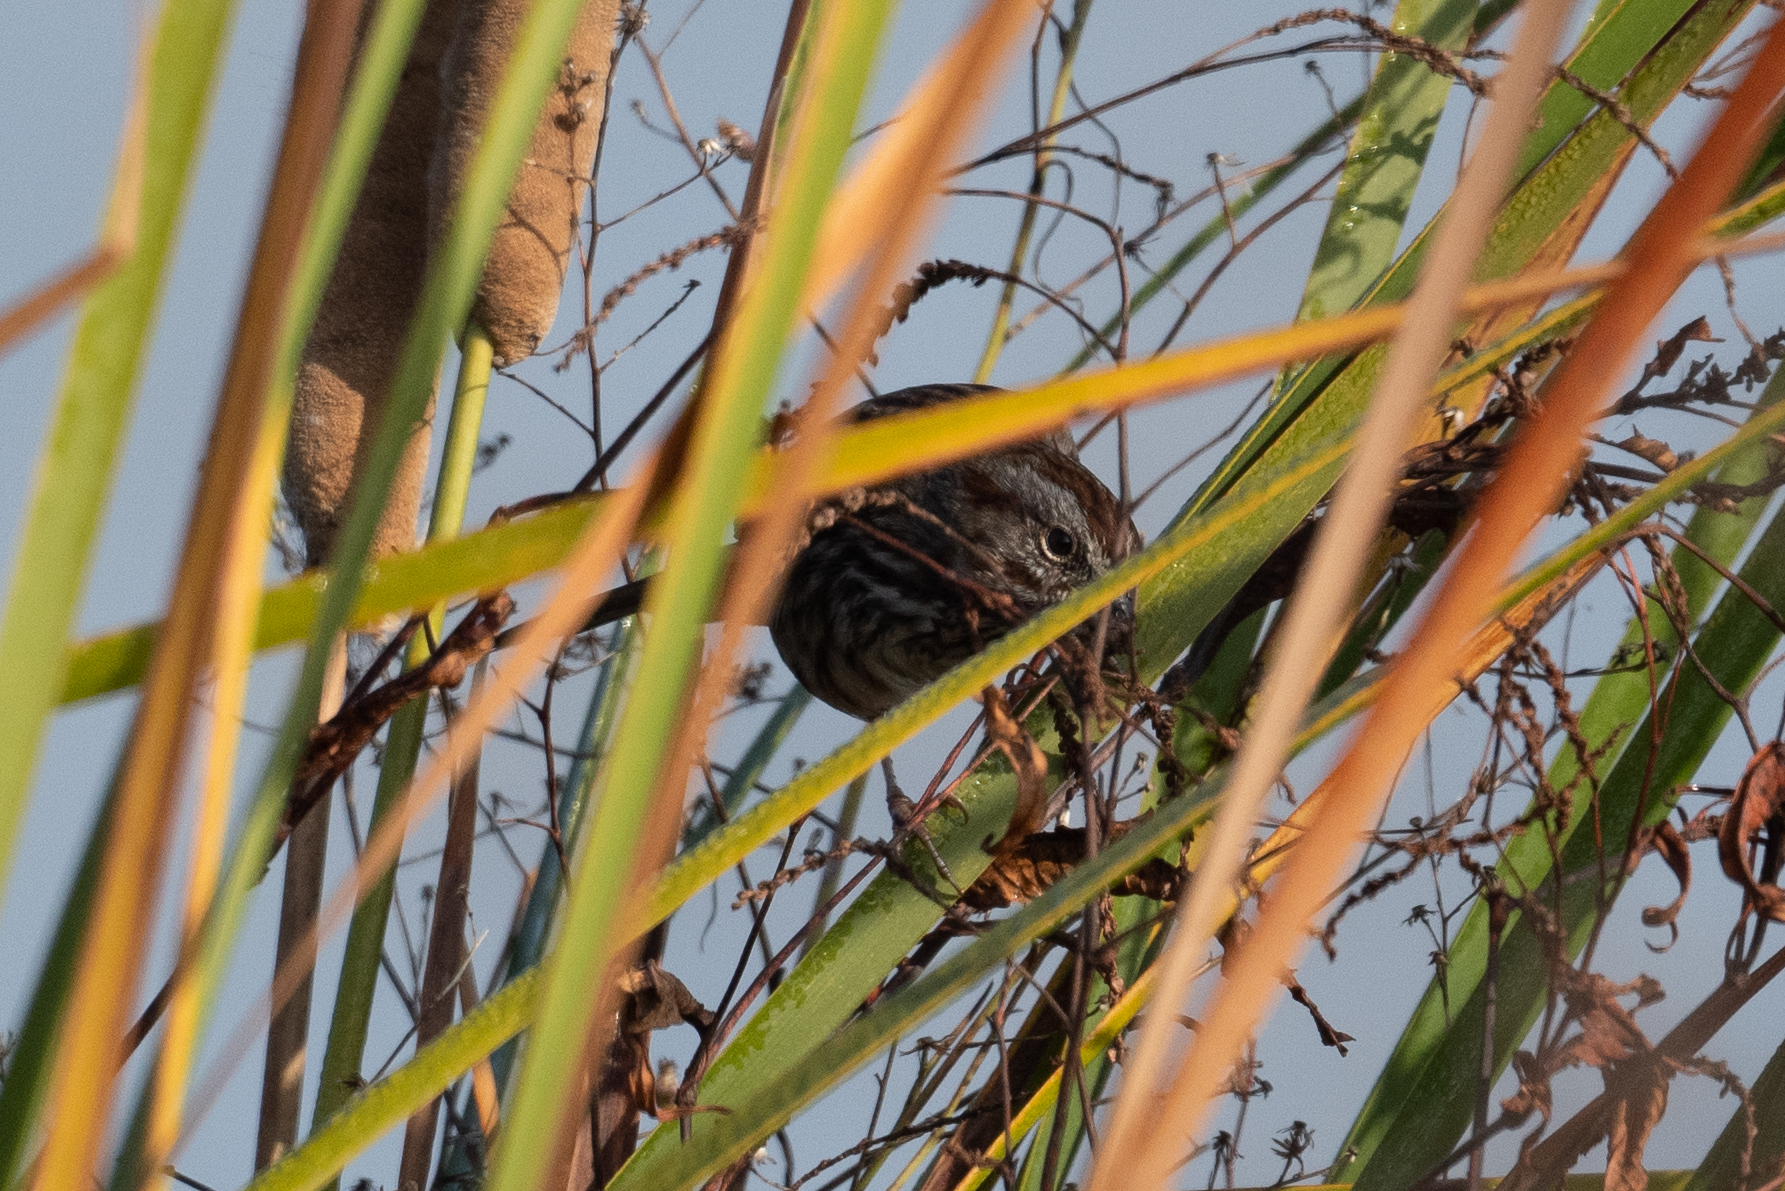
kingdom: Animalia
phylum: Chordata
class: Aves
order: Passeriformes
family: Passerellidae
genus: Melospiza
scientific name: Melospiza melodia
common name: Song sparrow
